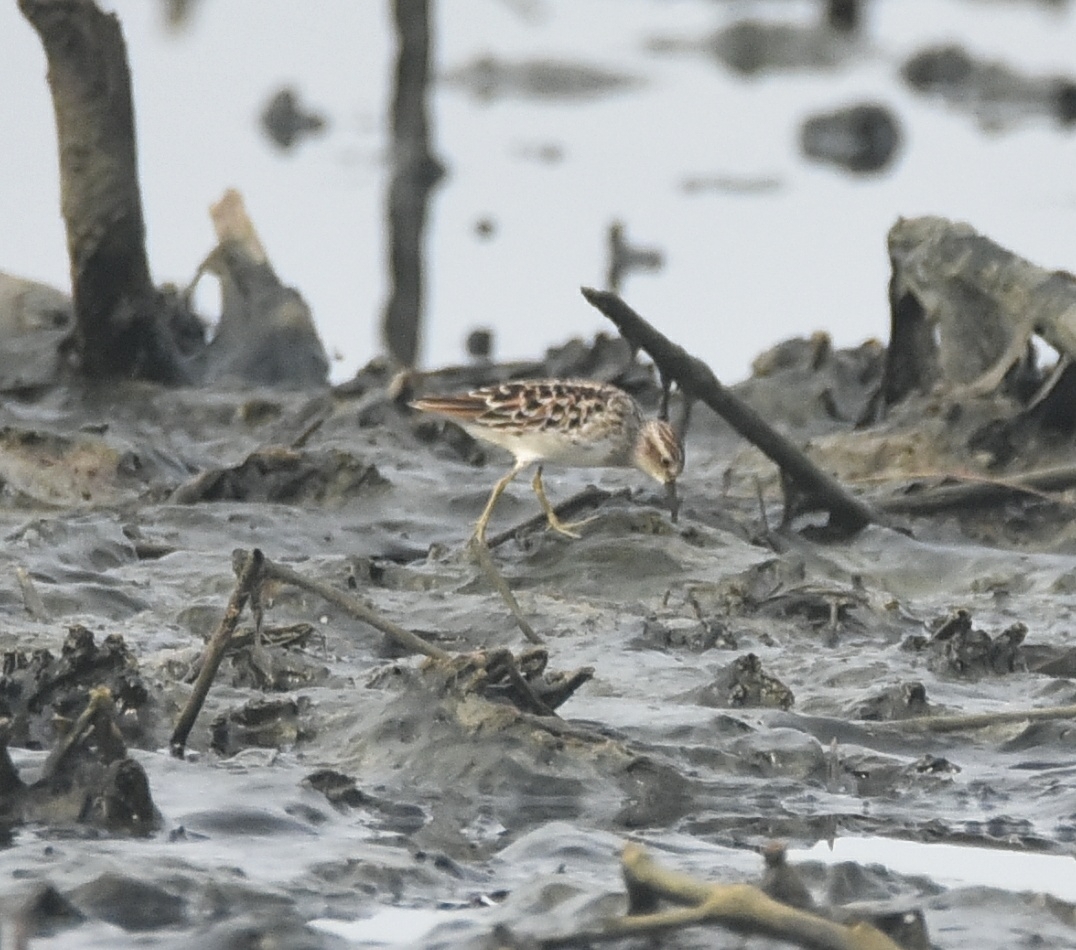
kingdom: Animalia
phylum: Chordata
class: Aves
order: Charadriiformes
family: Scolopacidae
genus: Calidris
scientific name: Calidris subminuta
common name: Long-toed stint
